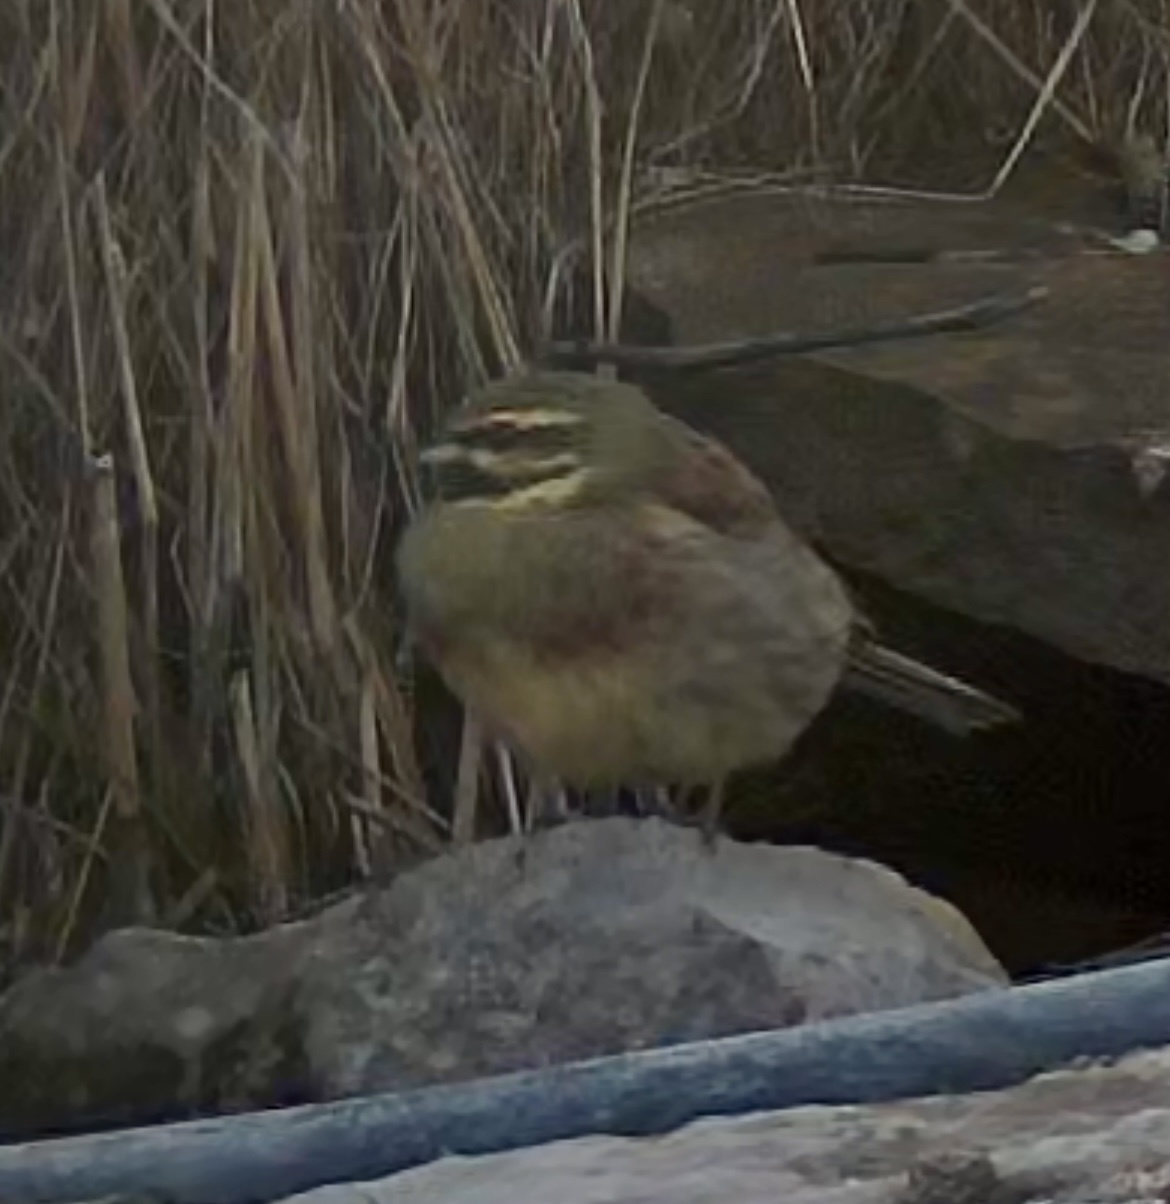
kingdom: Animalia
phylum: Chordata
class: Aves
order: Passeriformes
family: Emberizidae
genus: Emberiza
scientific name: Emberiza cirlus
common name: Cirl bunting
